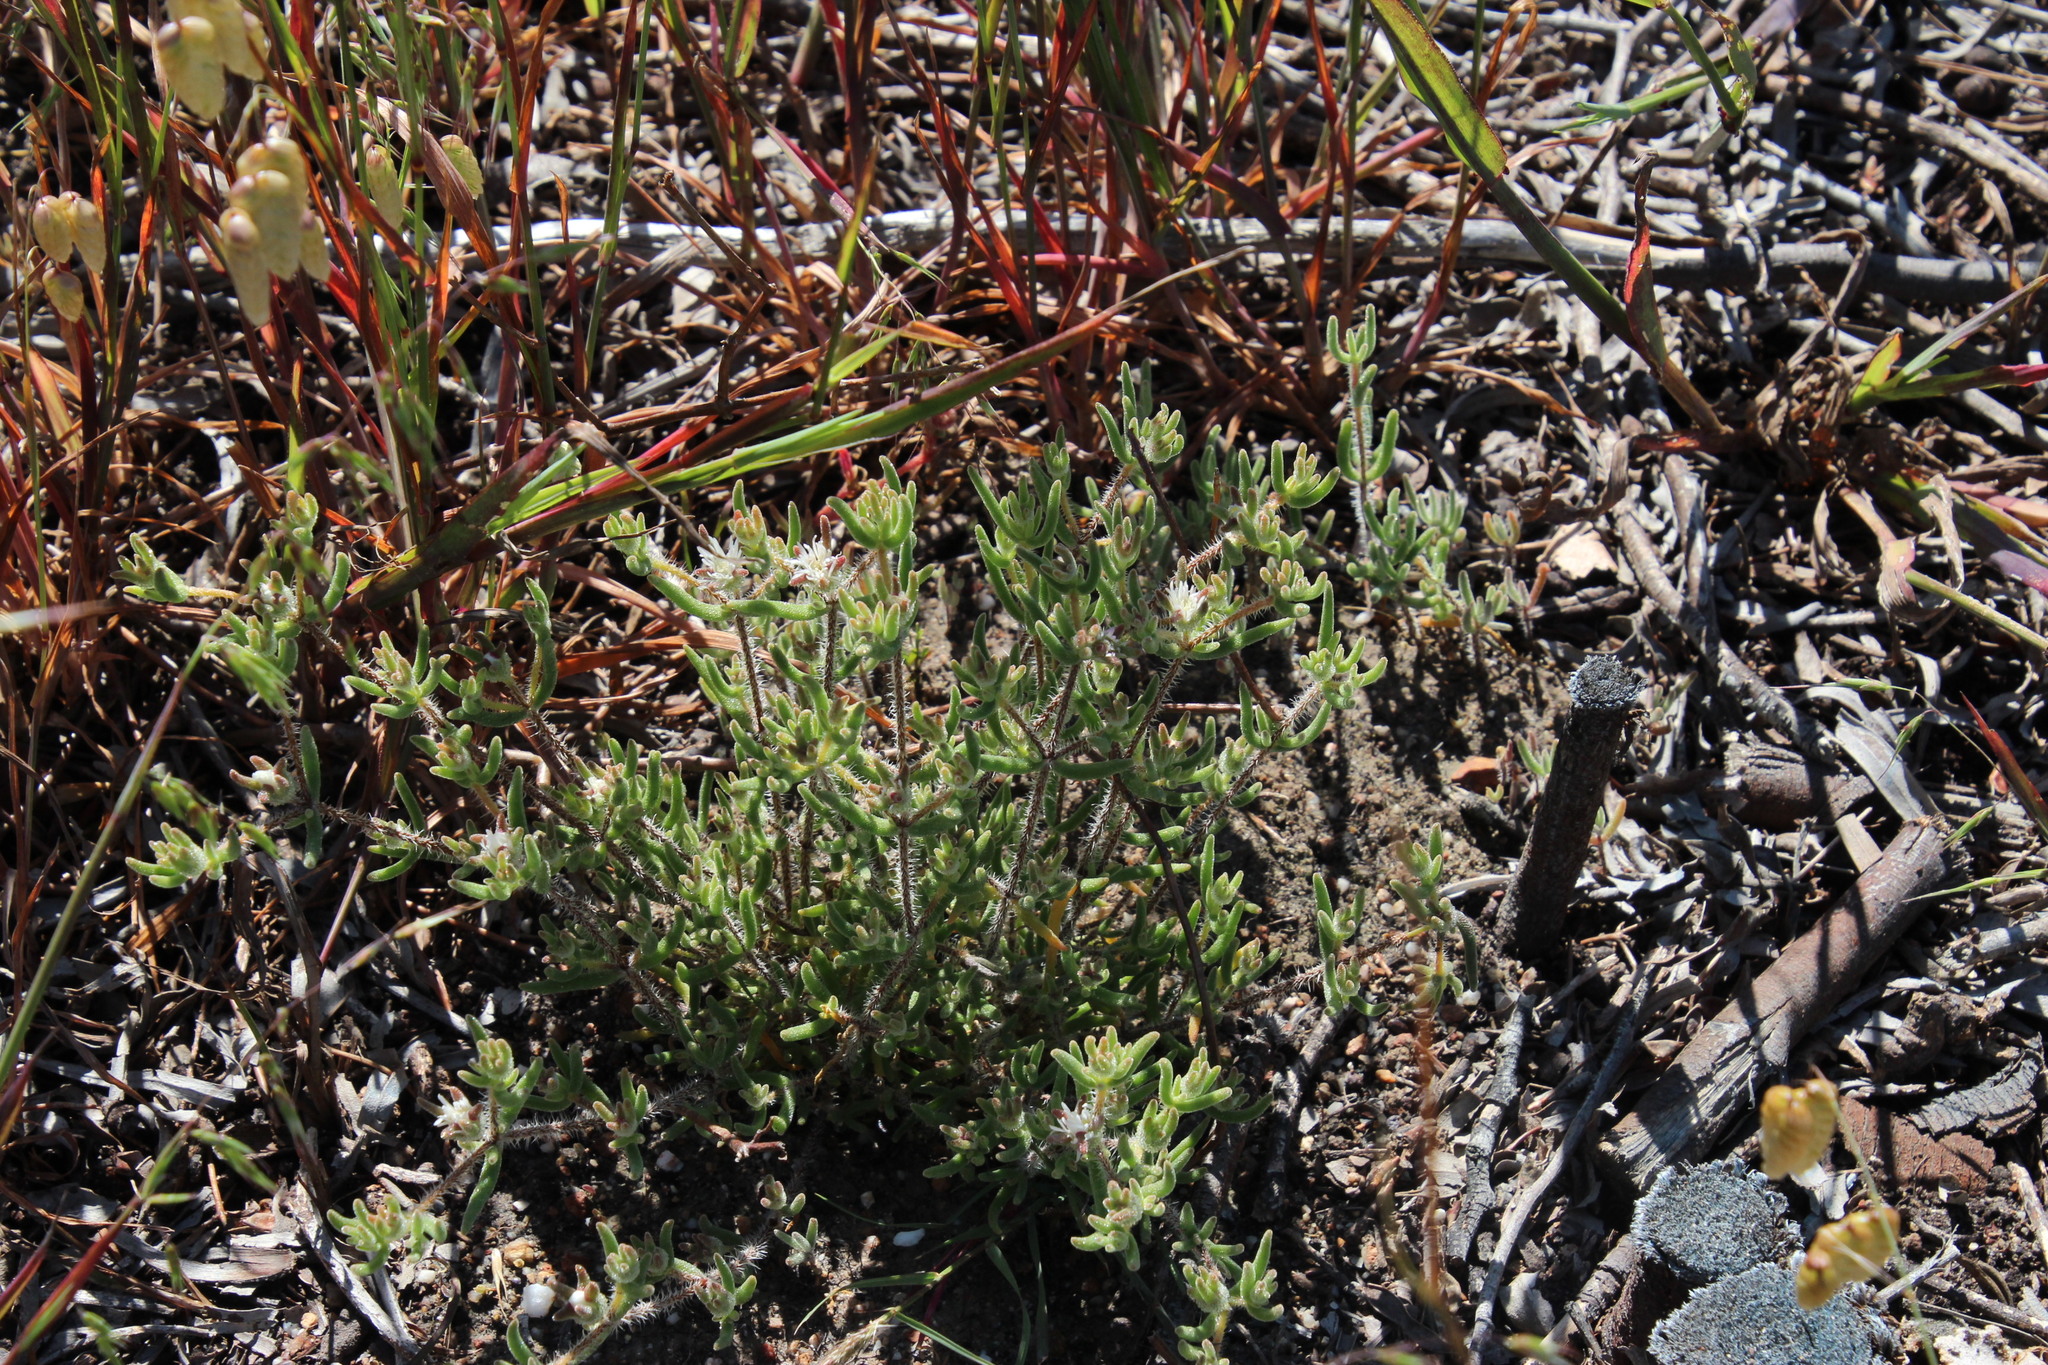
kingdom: Plantae
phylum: Tracheophyta
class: Magnoliopsida
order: Caryophyllales
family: Aizoaceae
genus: Drosanthemum
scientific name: Drosanthemum calycinum
